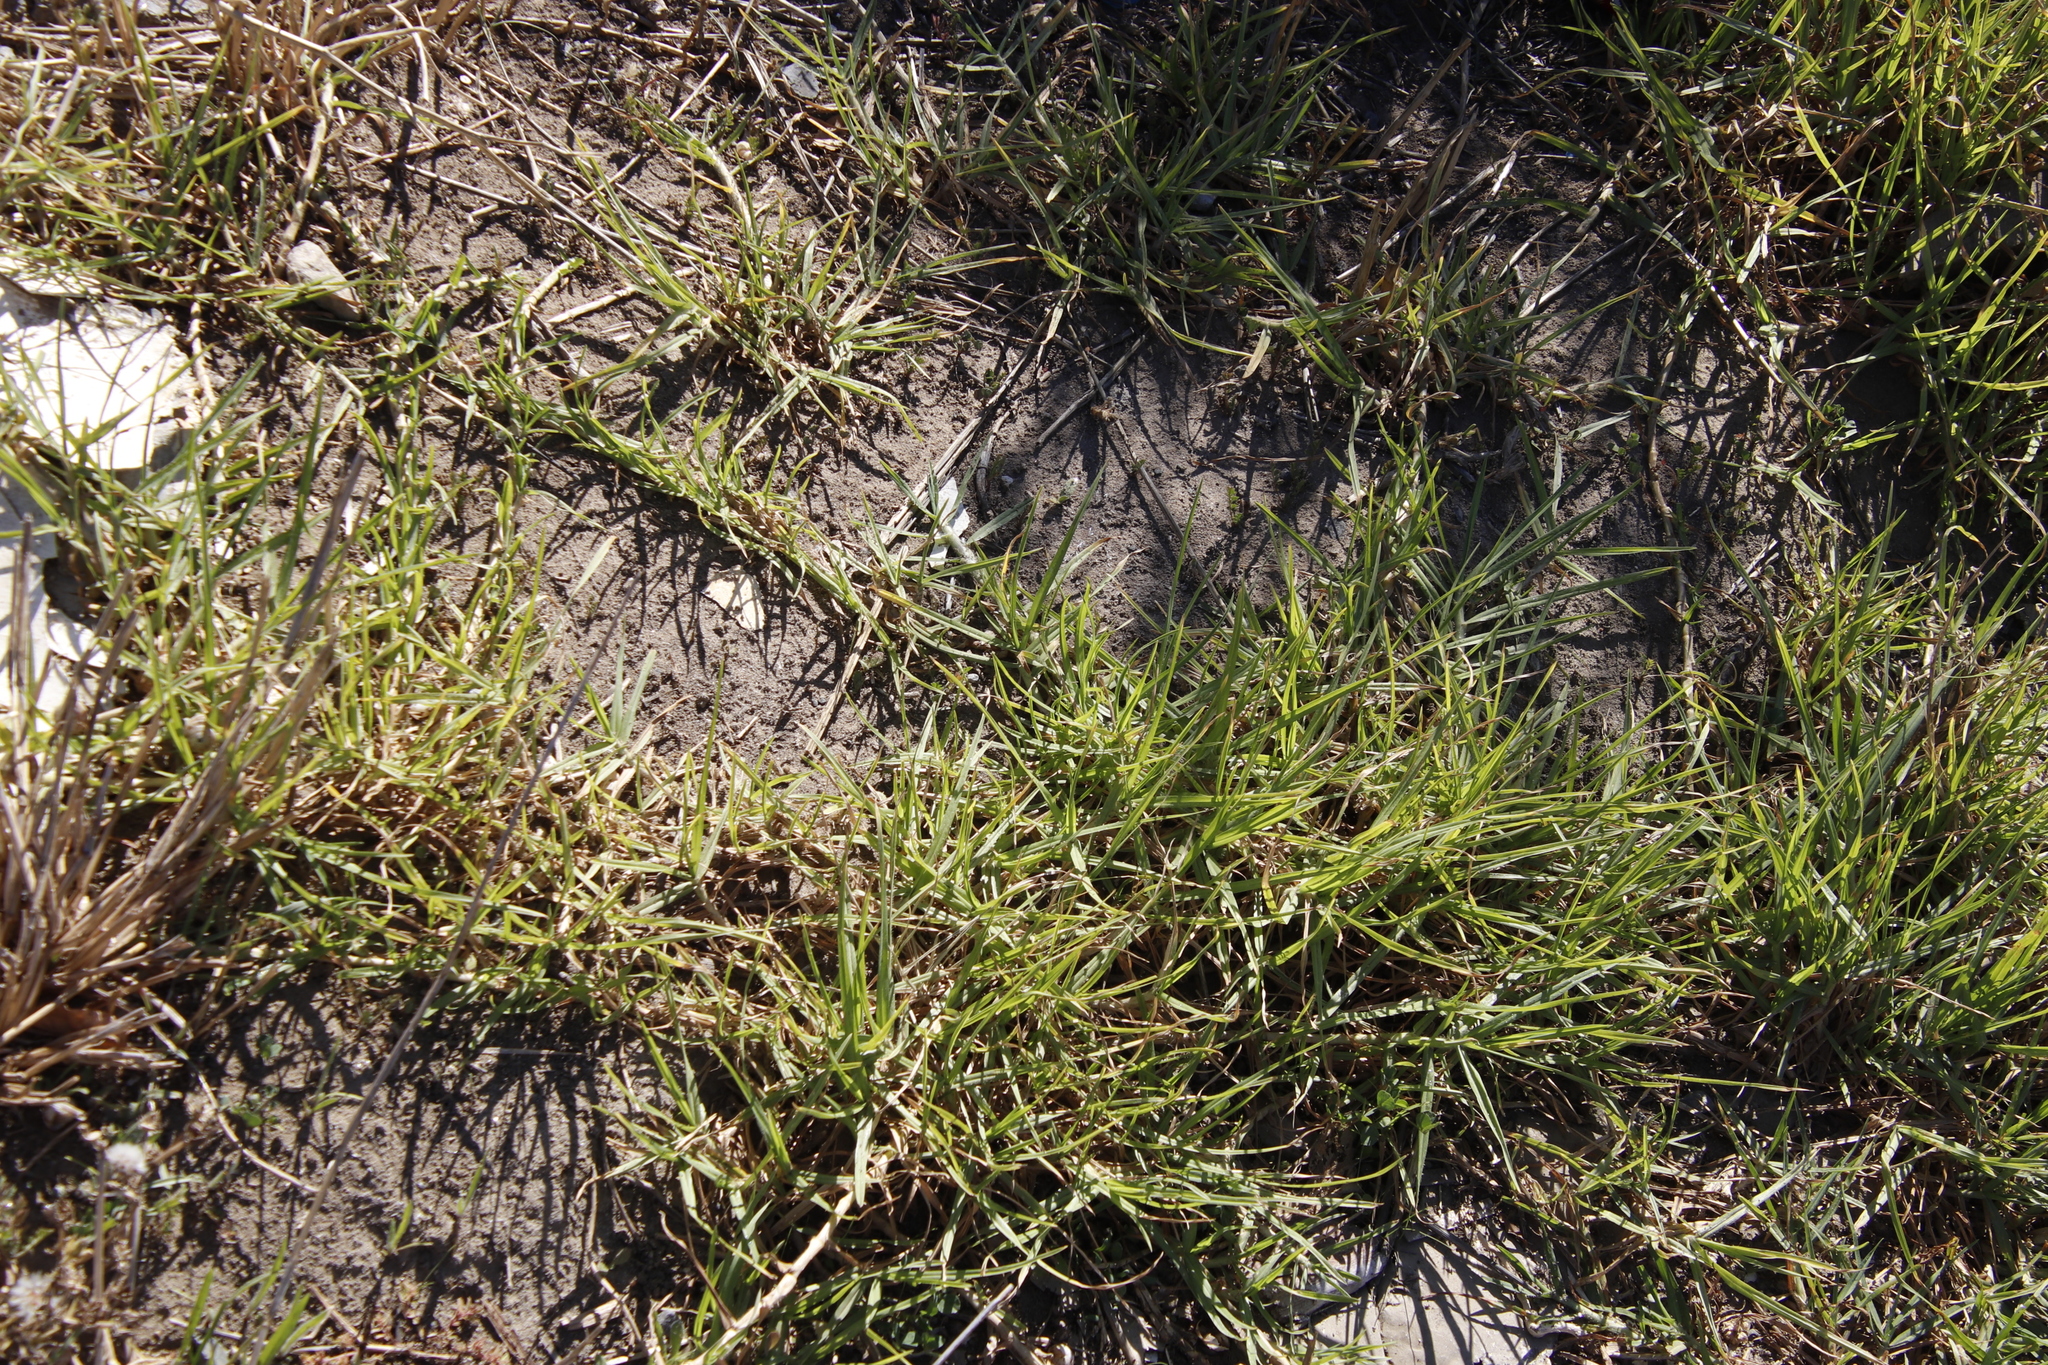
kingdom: Plantae
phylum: Tracheophyta
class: Liliopsida
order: Poales
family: Poaceae
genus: Cenchrus
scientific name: Cenchrus clandestinus
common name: Kikuyugrass
